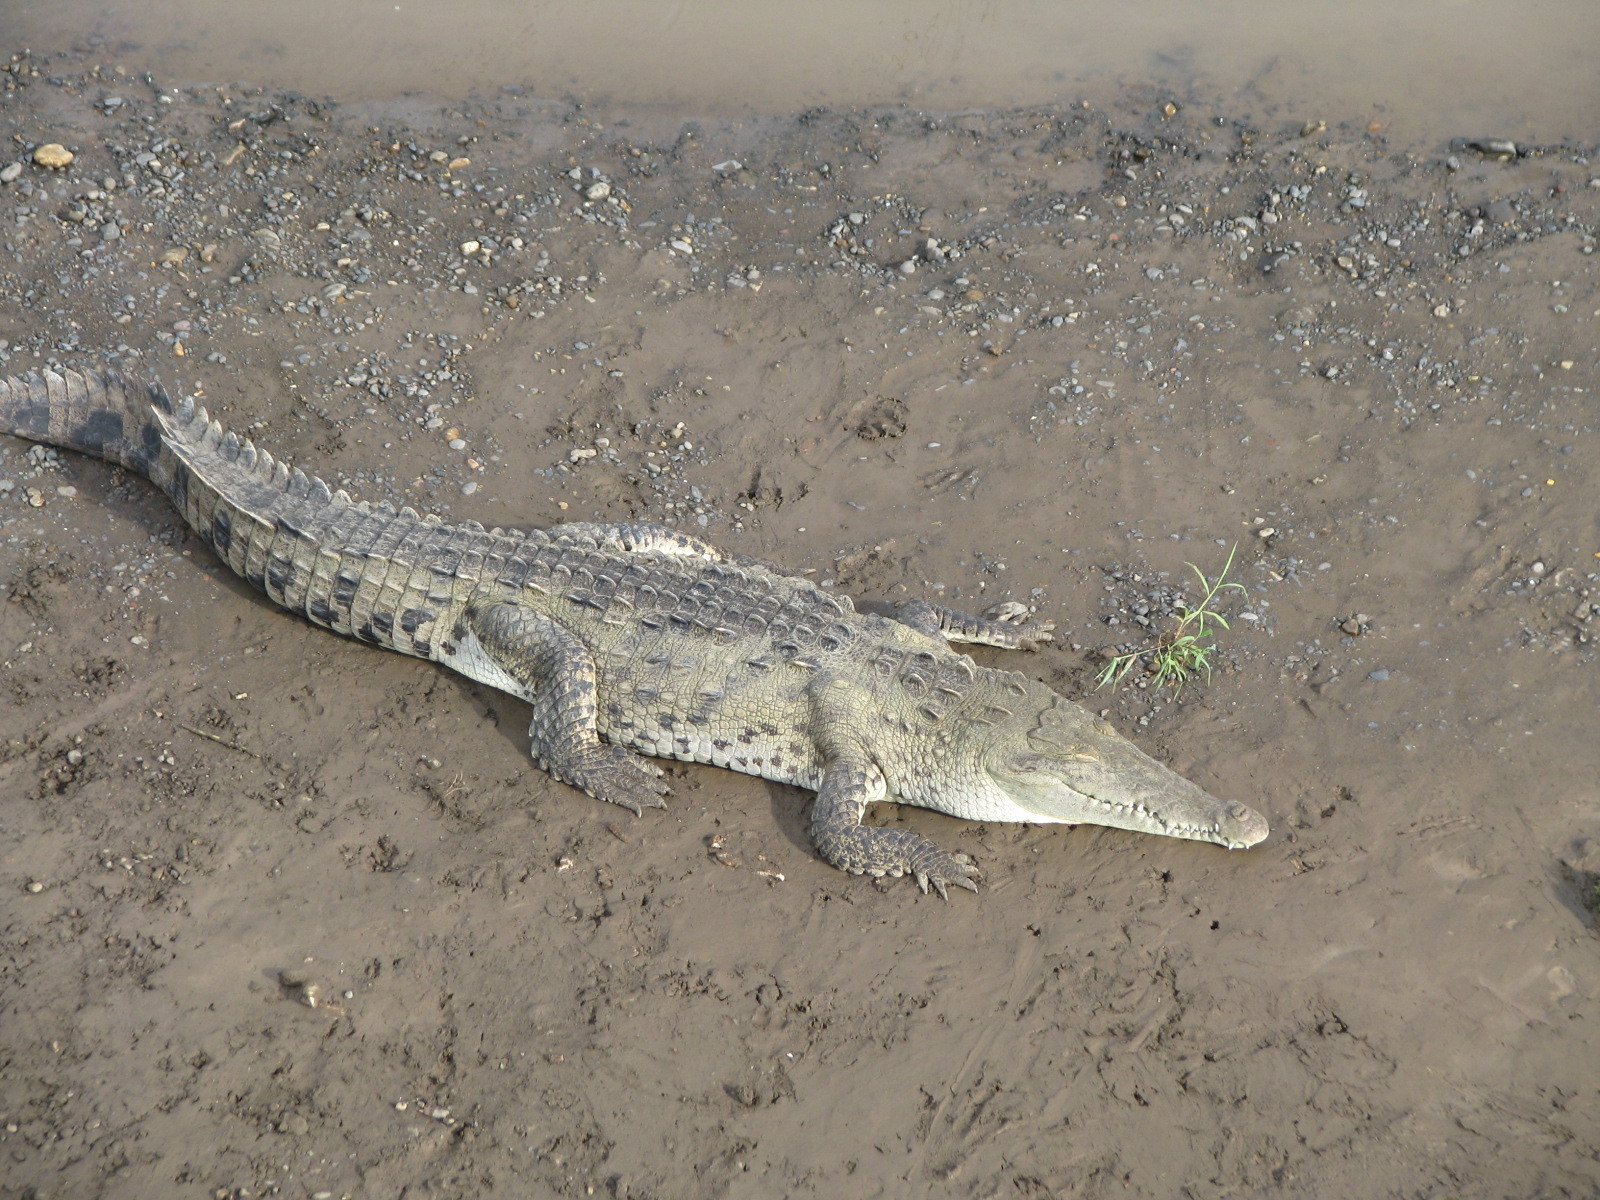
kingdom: Animalia
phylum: Chordata
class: Crocodylia
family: Crocodylidae
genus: Crocodylus
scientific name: Crocodylus acutus
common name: American crocodile
